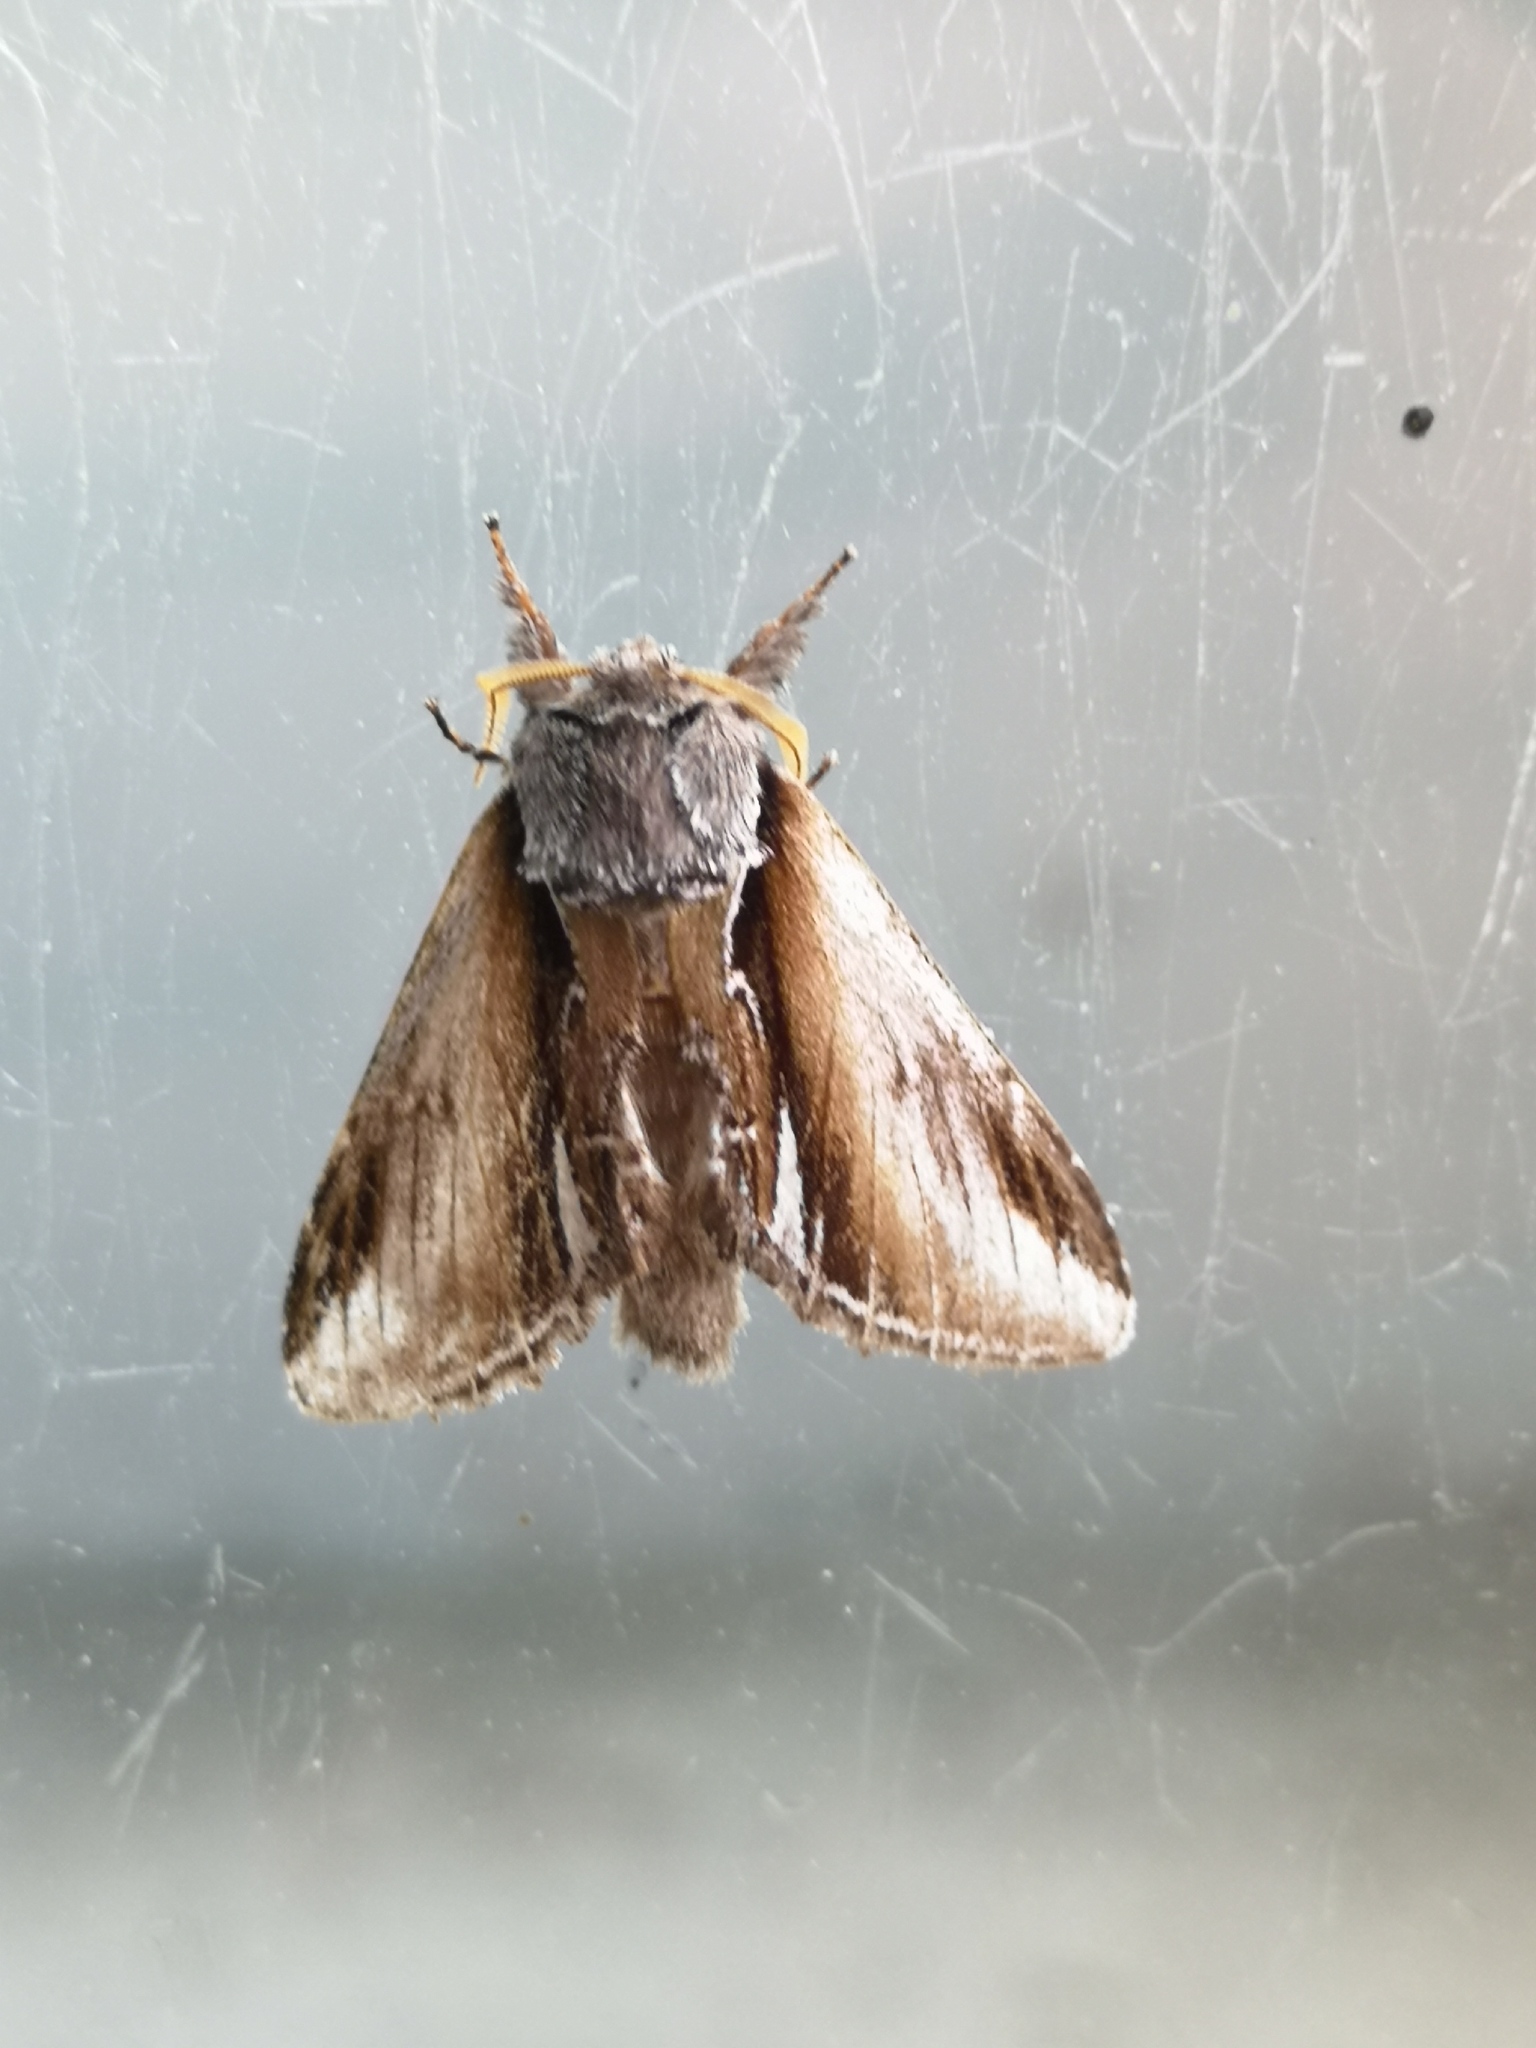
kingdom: Animalia
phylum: Arthropoda
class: Insecta
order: Lepidoptera
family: Notodontidae
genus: Pheosia
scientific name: Pheosia gnoma
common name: Lesser swallow prominent
